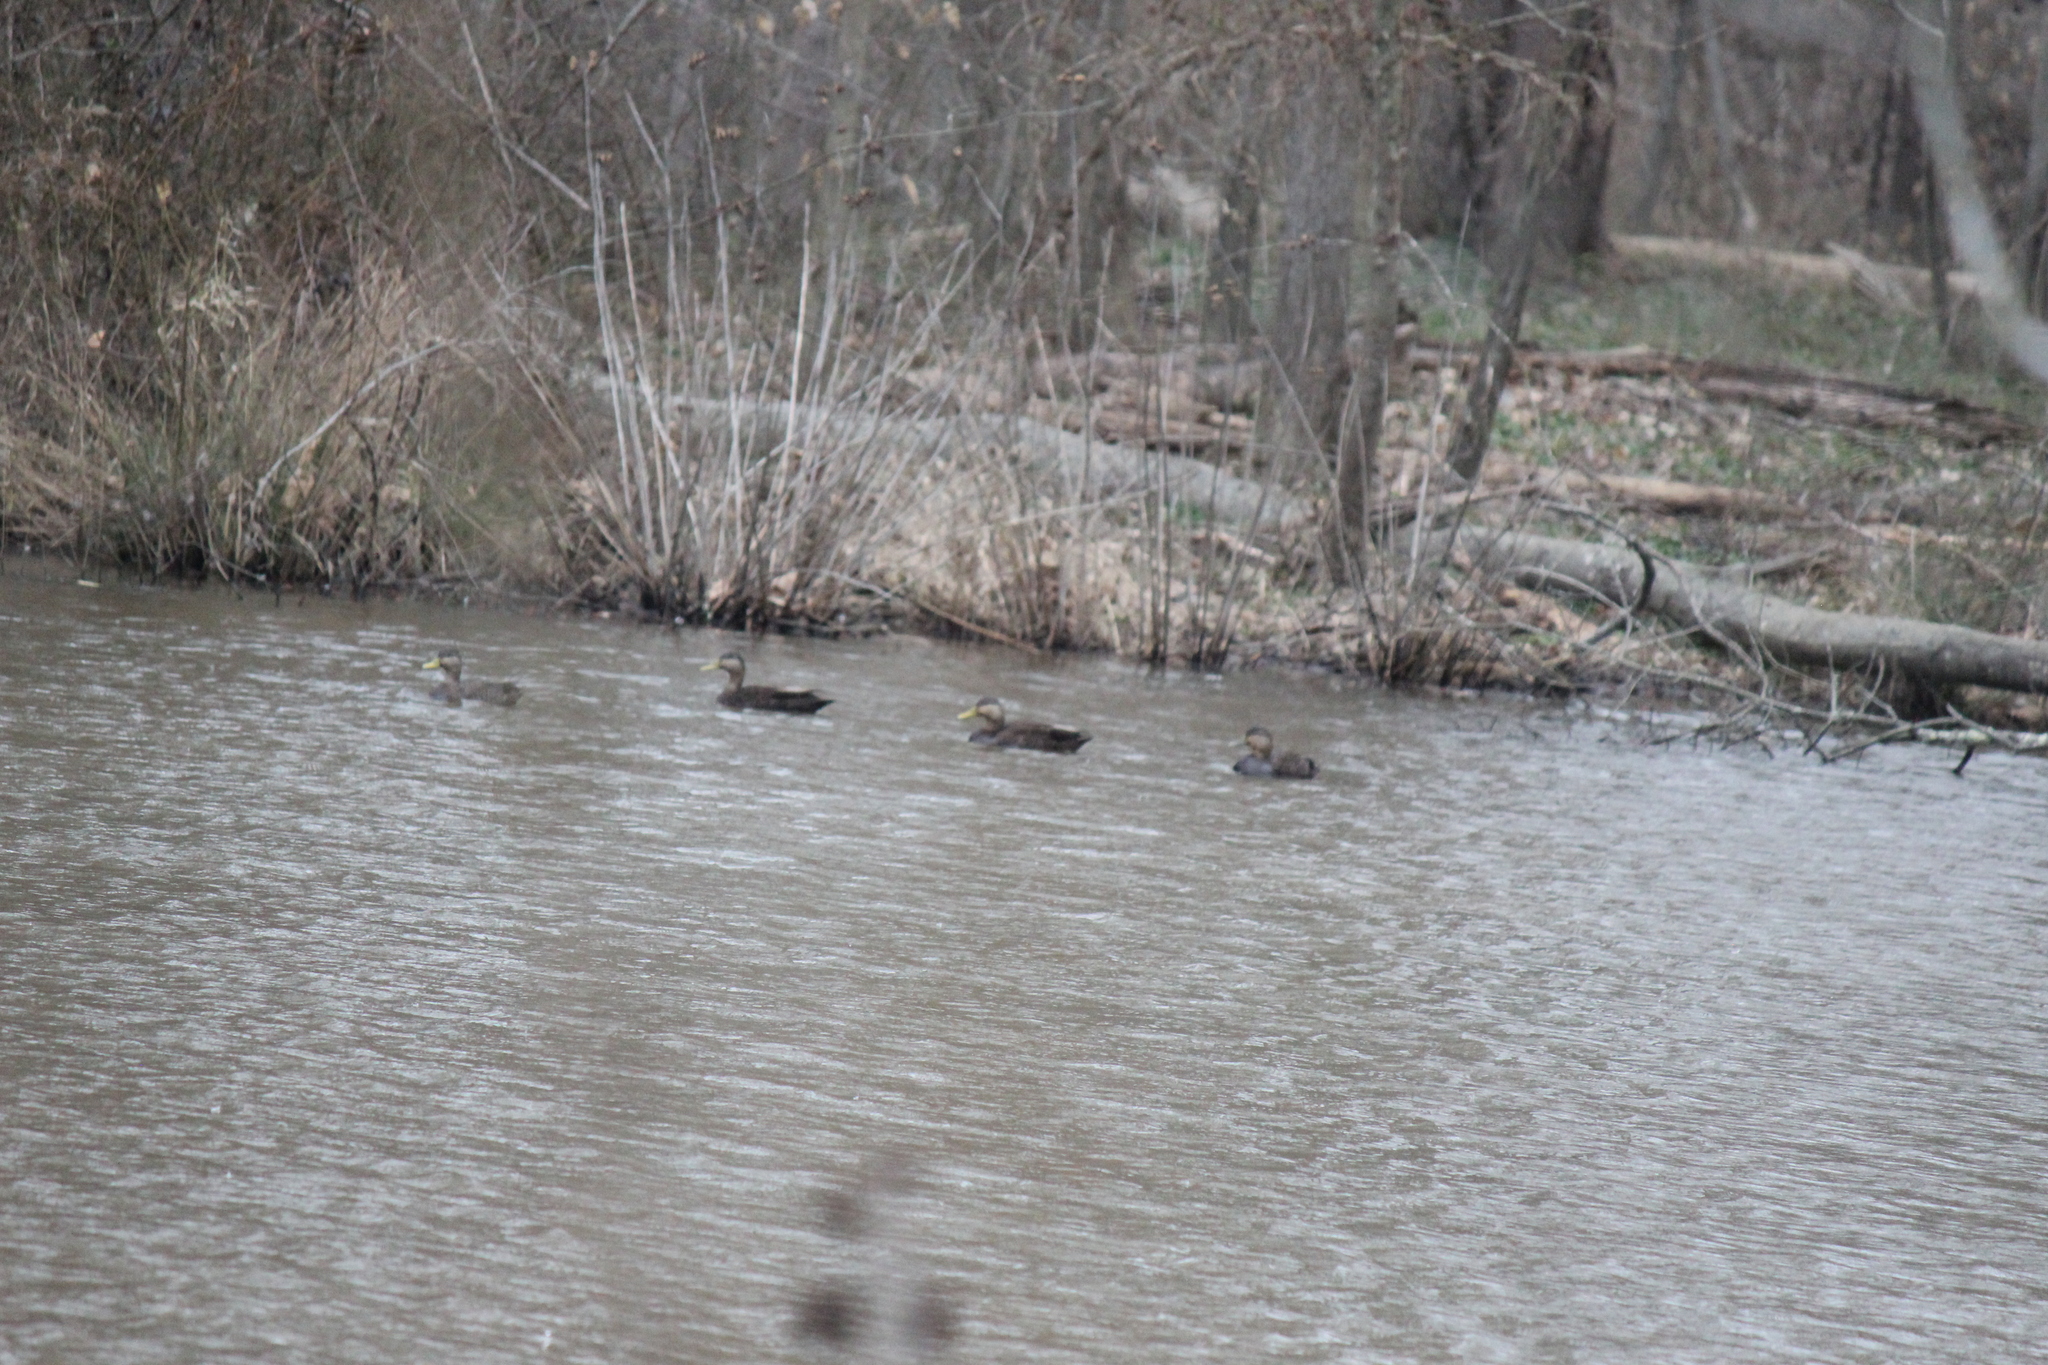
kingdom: Animalia
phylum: Chordata
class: Aves
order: Anseriformes
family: Anatidae
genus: Anas
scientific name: Anas rubripes
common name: American black duck
